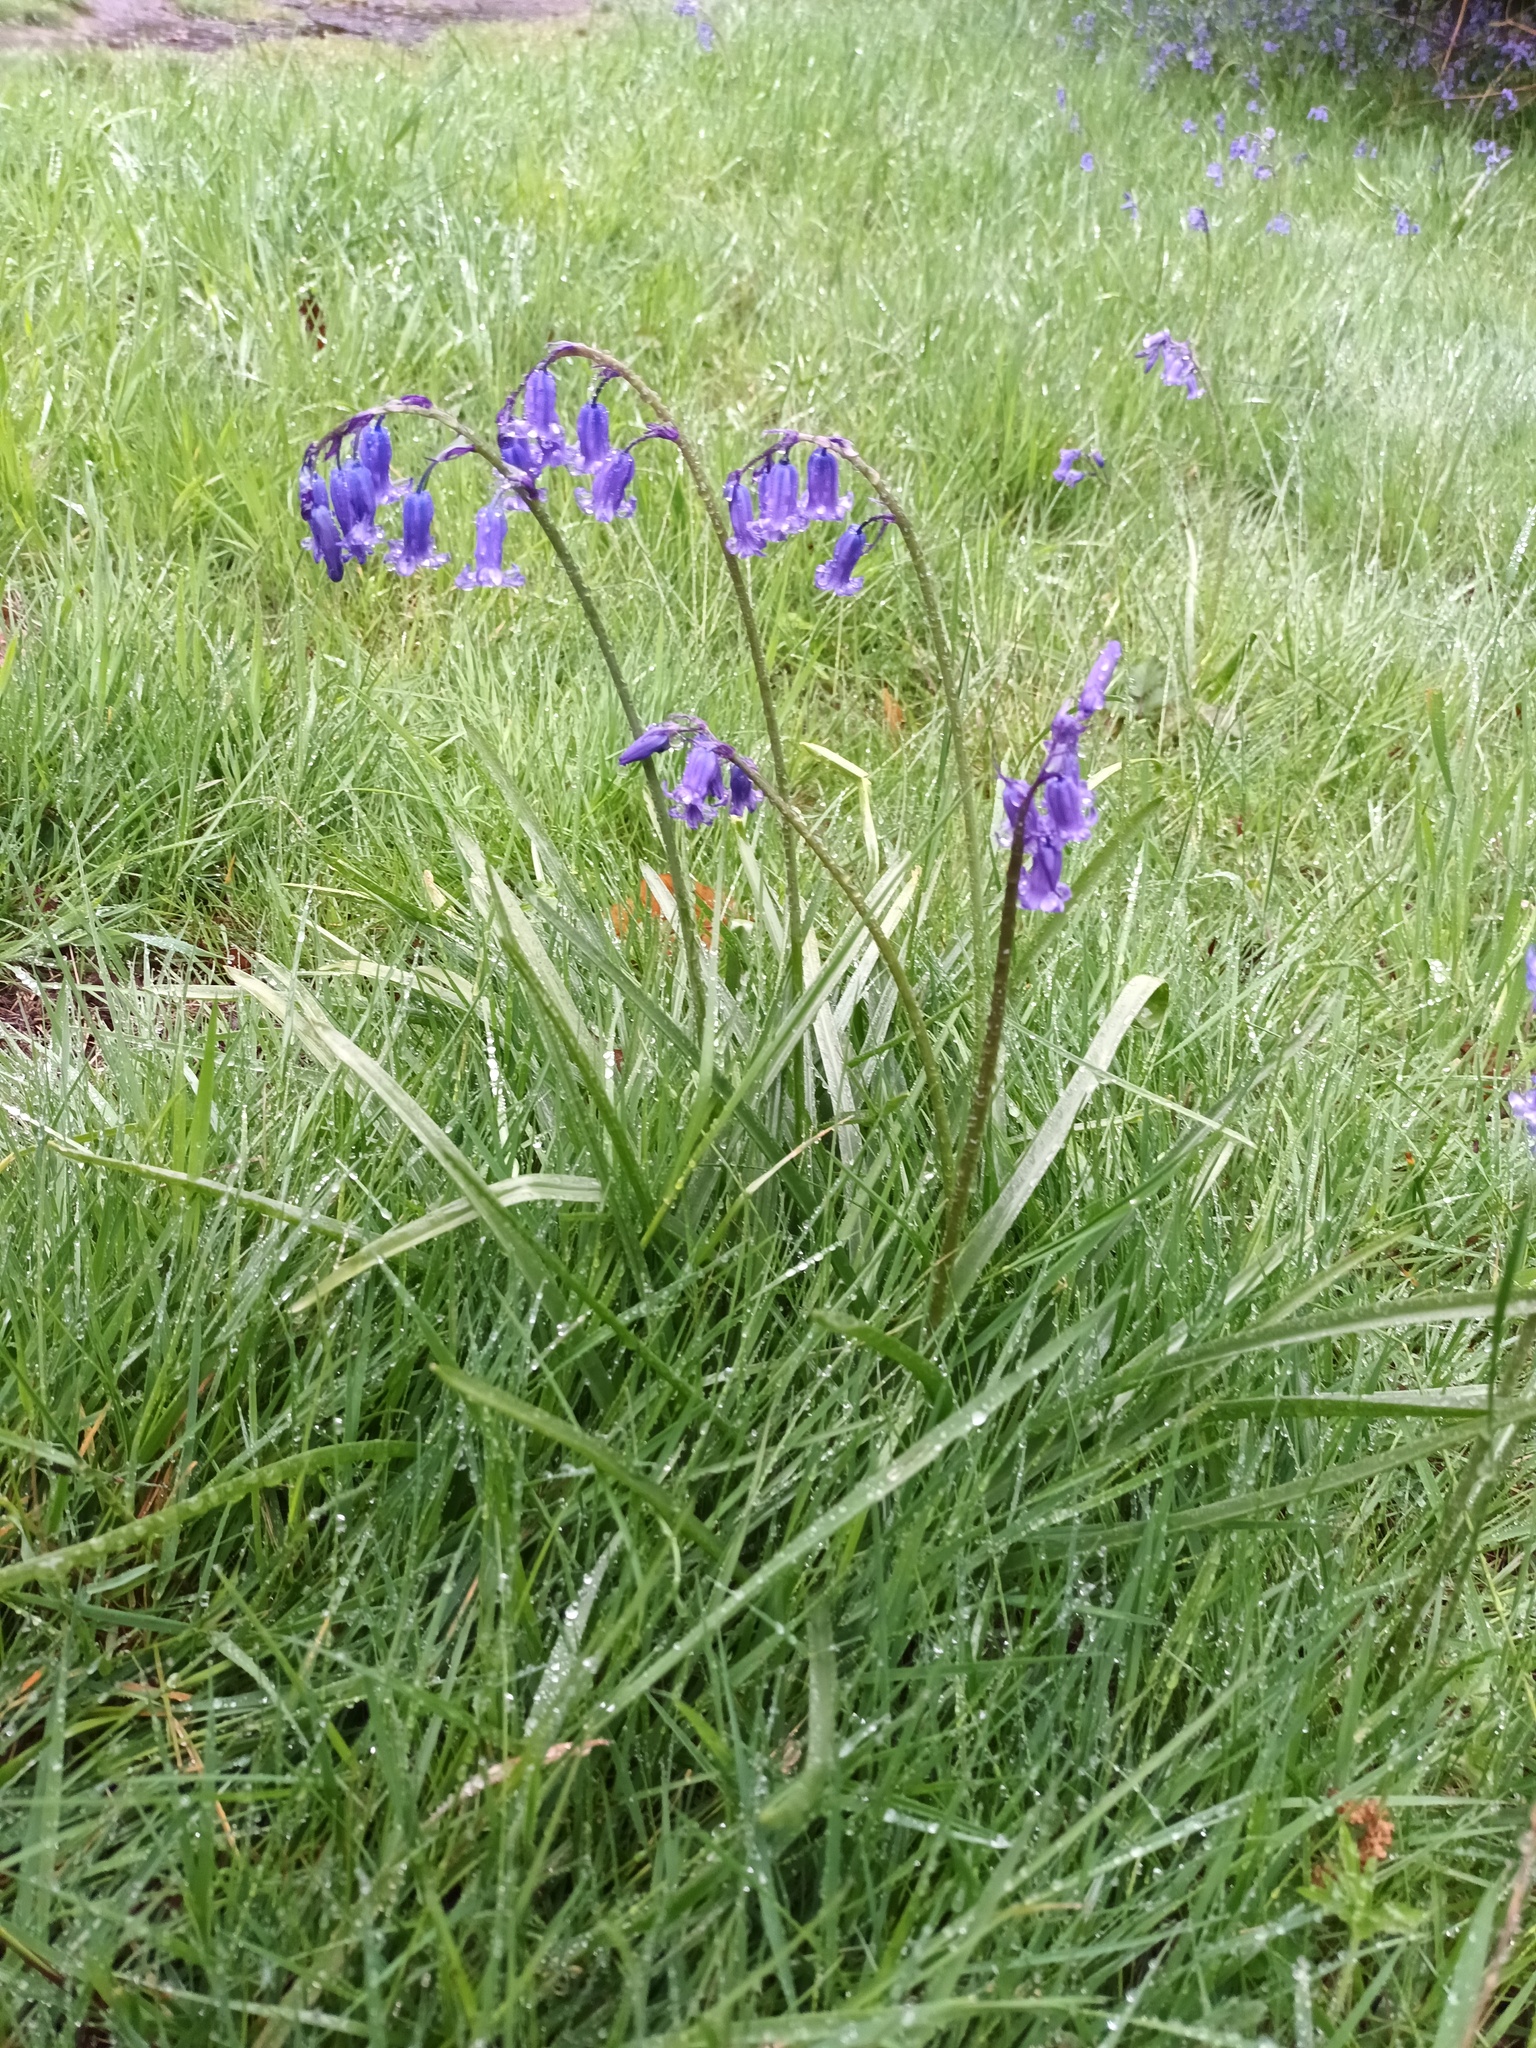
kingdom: Plantae
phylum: Tracheophyta
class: Liliopsida
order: Asparagales
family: Asparagaceae
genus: Hyacinthoides
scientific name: Hyacinthoides non-scripta
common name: Bluebell
